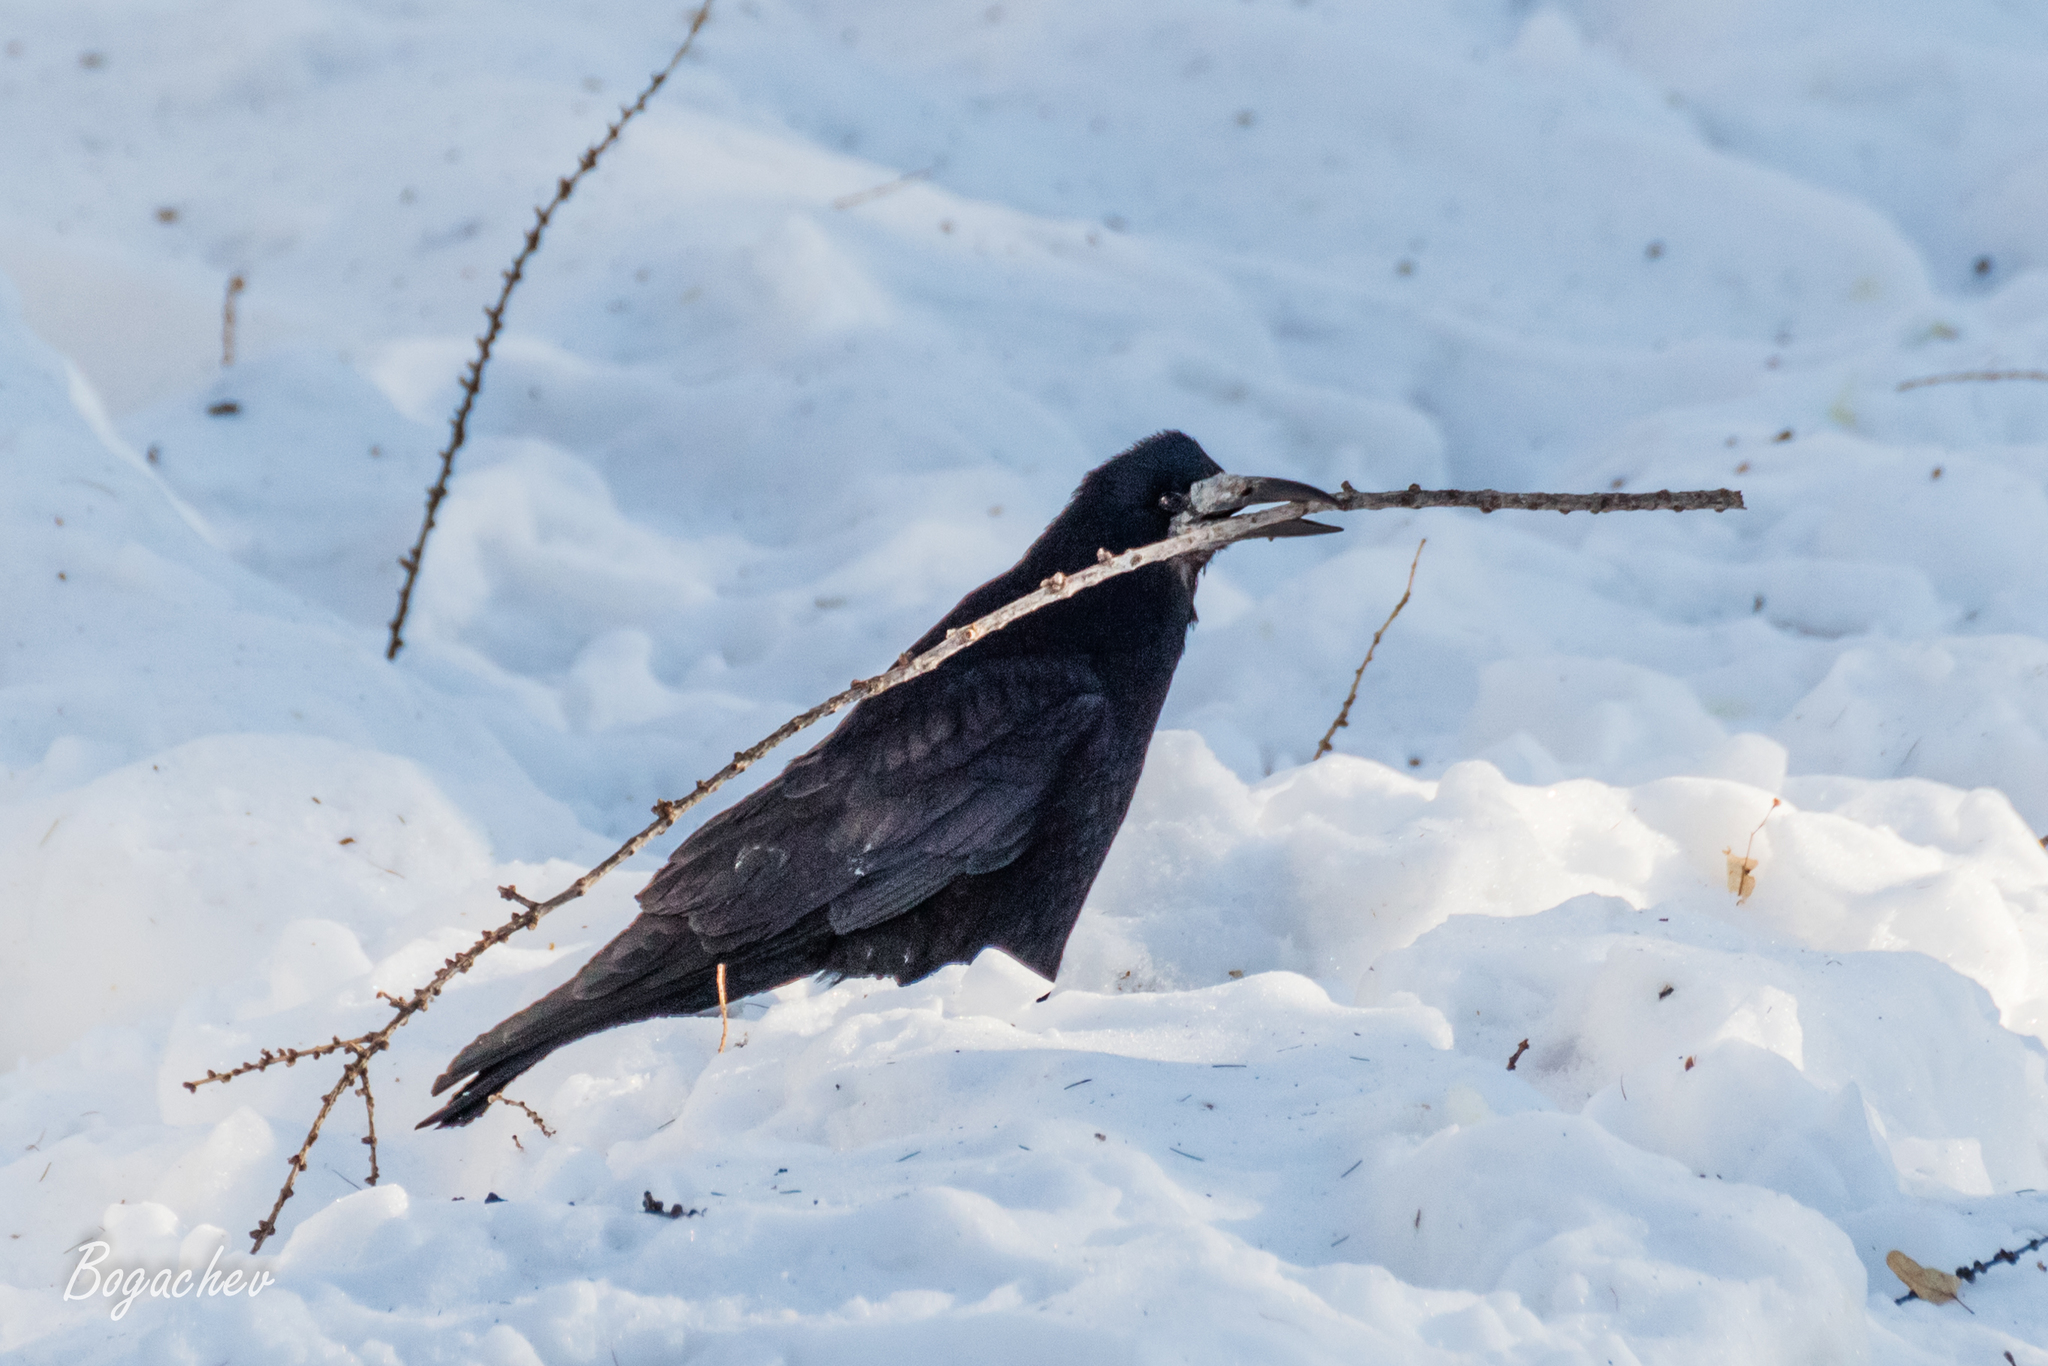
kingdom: Animalia
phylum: Chordata
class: Aves
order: Passeriformes
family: Corvidae
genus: Corvus
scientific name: Corvus frugilegus
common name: Rook
